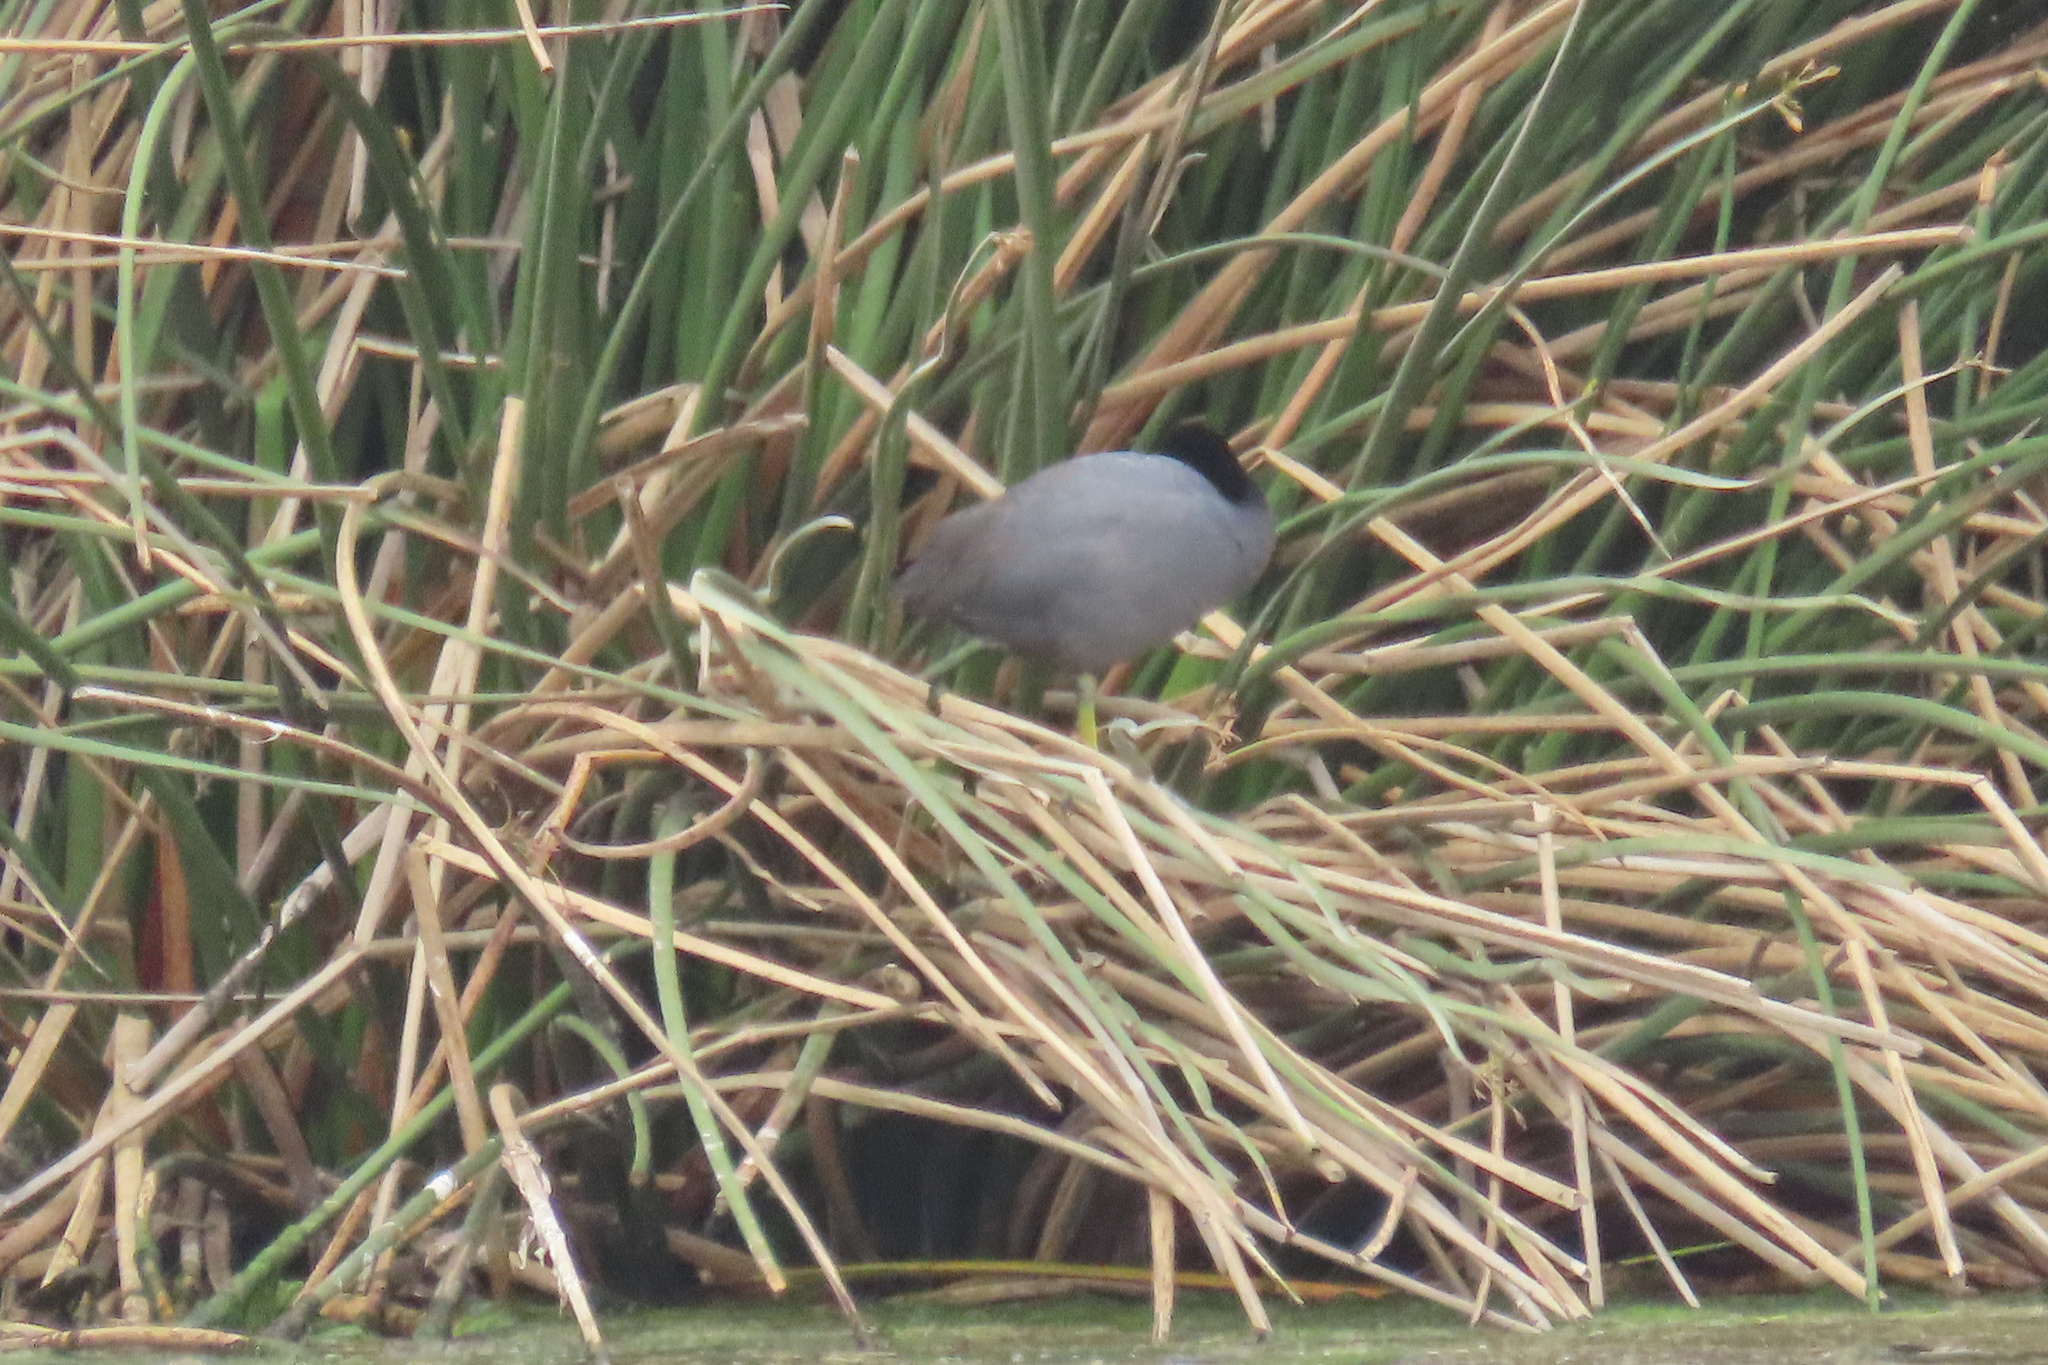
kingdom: Animalia
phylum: Chordata
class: Aves
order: Gruiformes
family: Rallidae
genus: Fulica
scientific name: Fulica americana
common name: American coot
